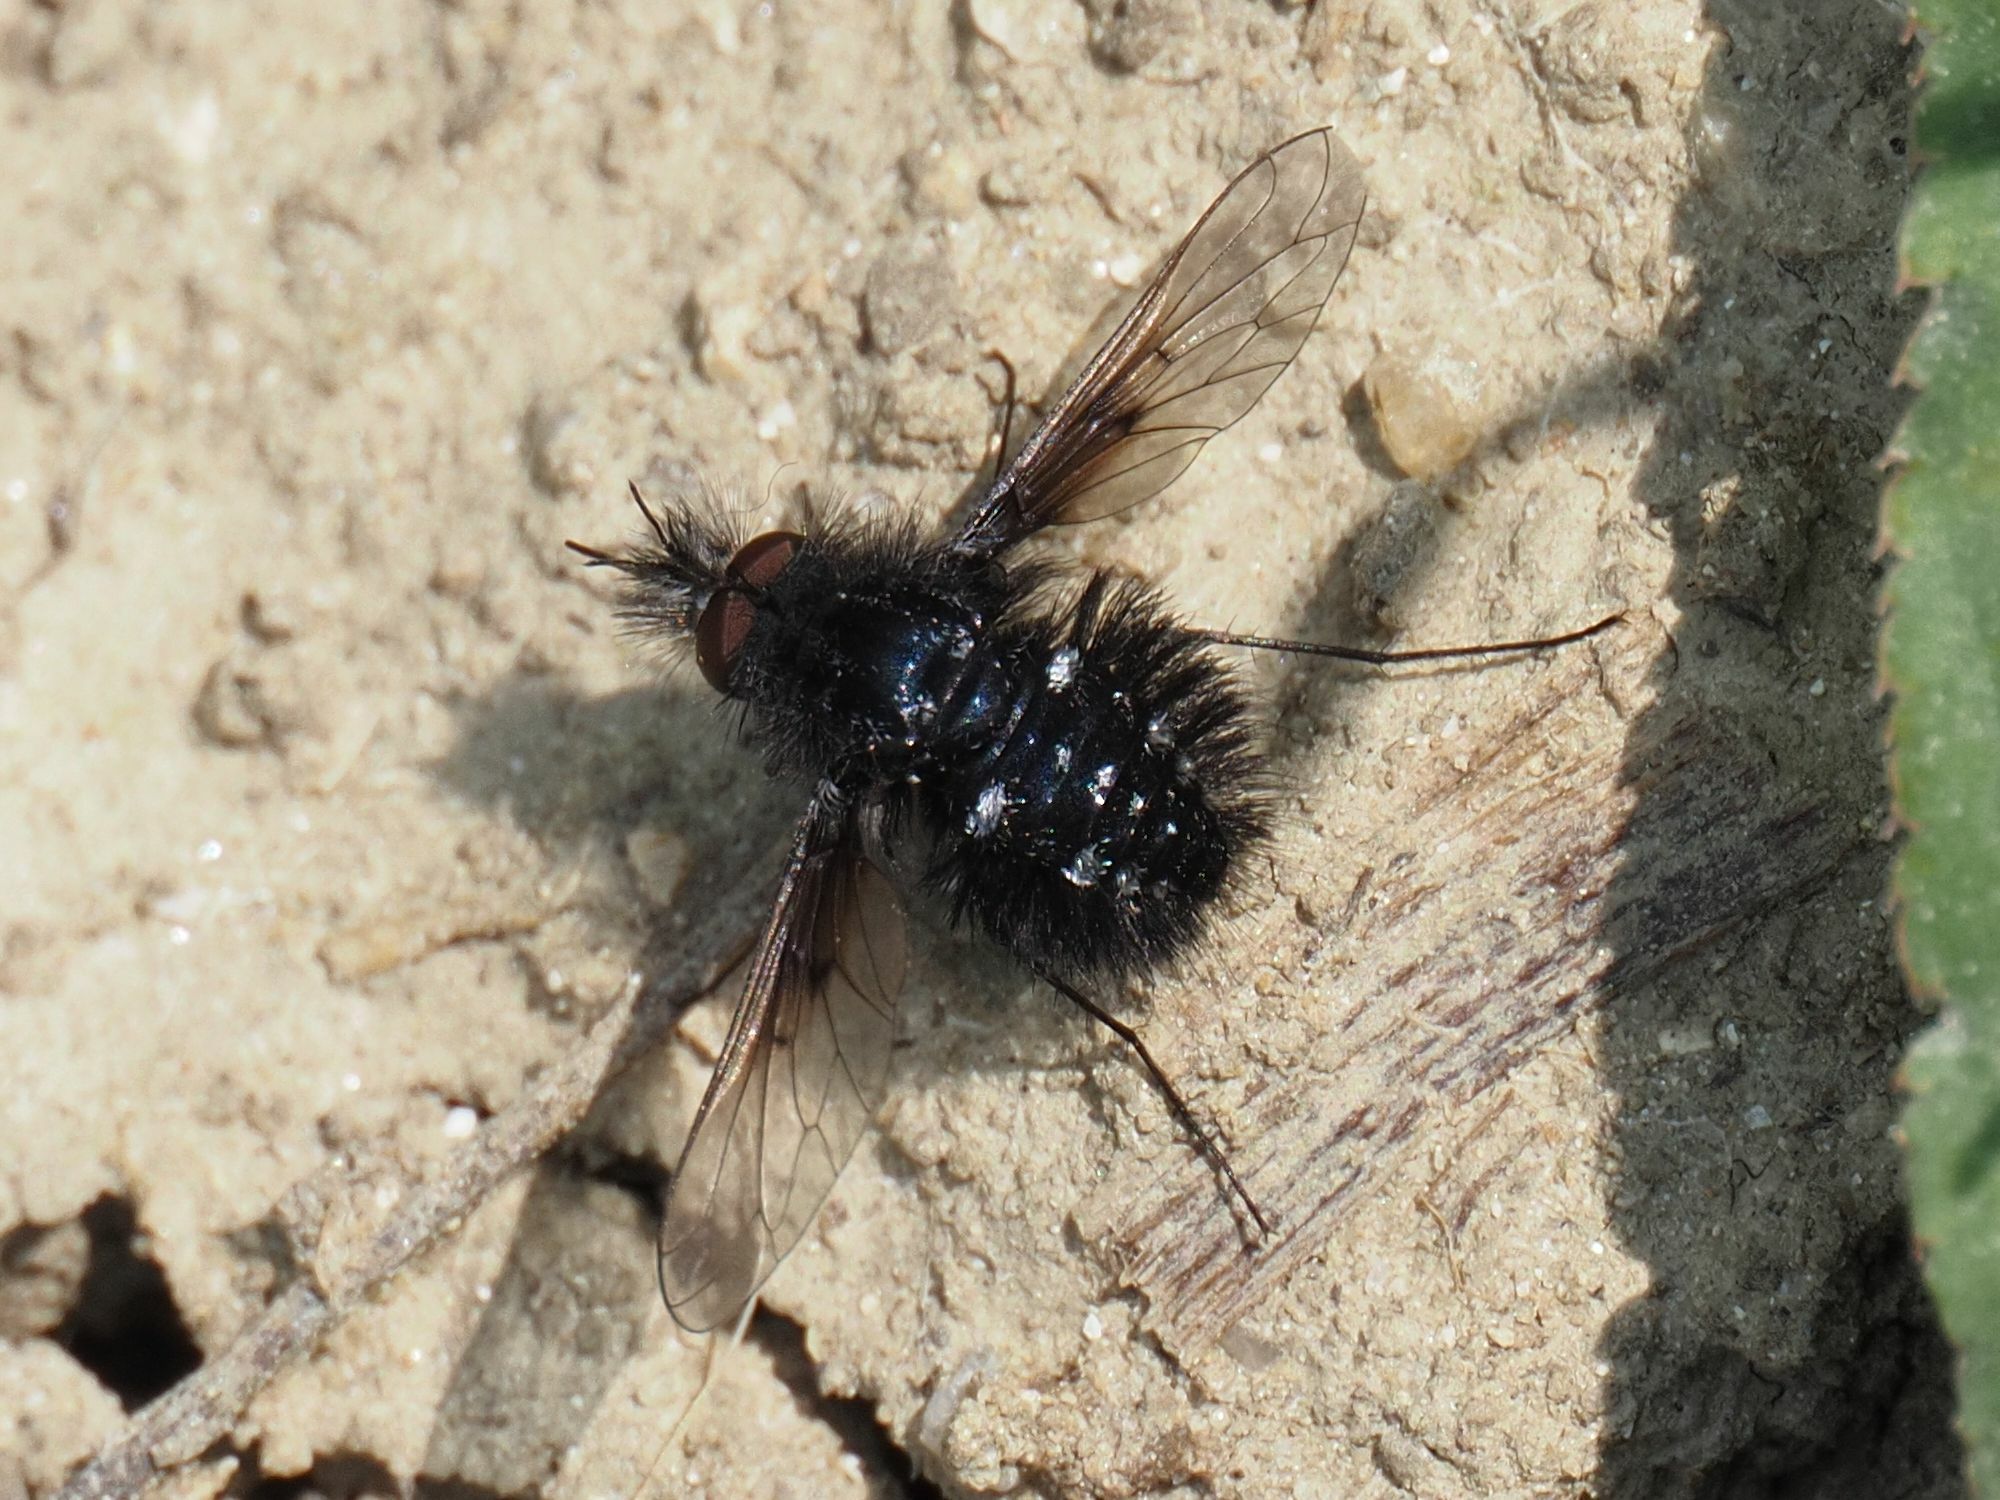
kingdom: Animalia
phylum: Arthropoda
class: Insecta
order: Diptera
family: Bombyliidae
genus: Bombylella
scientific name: Bombylella atra
